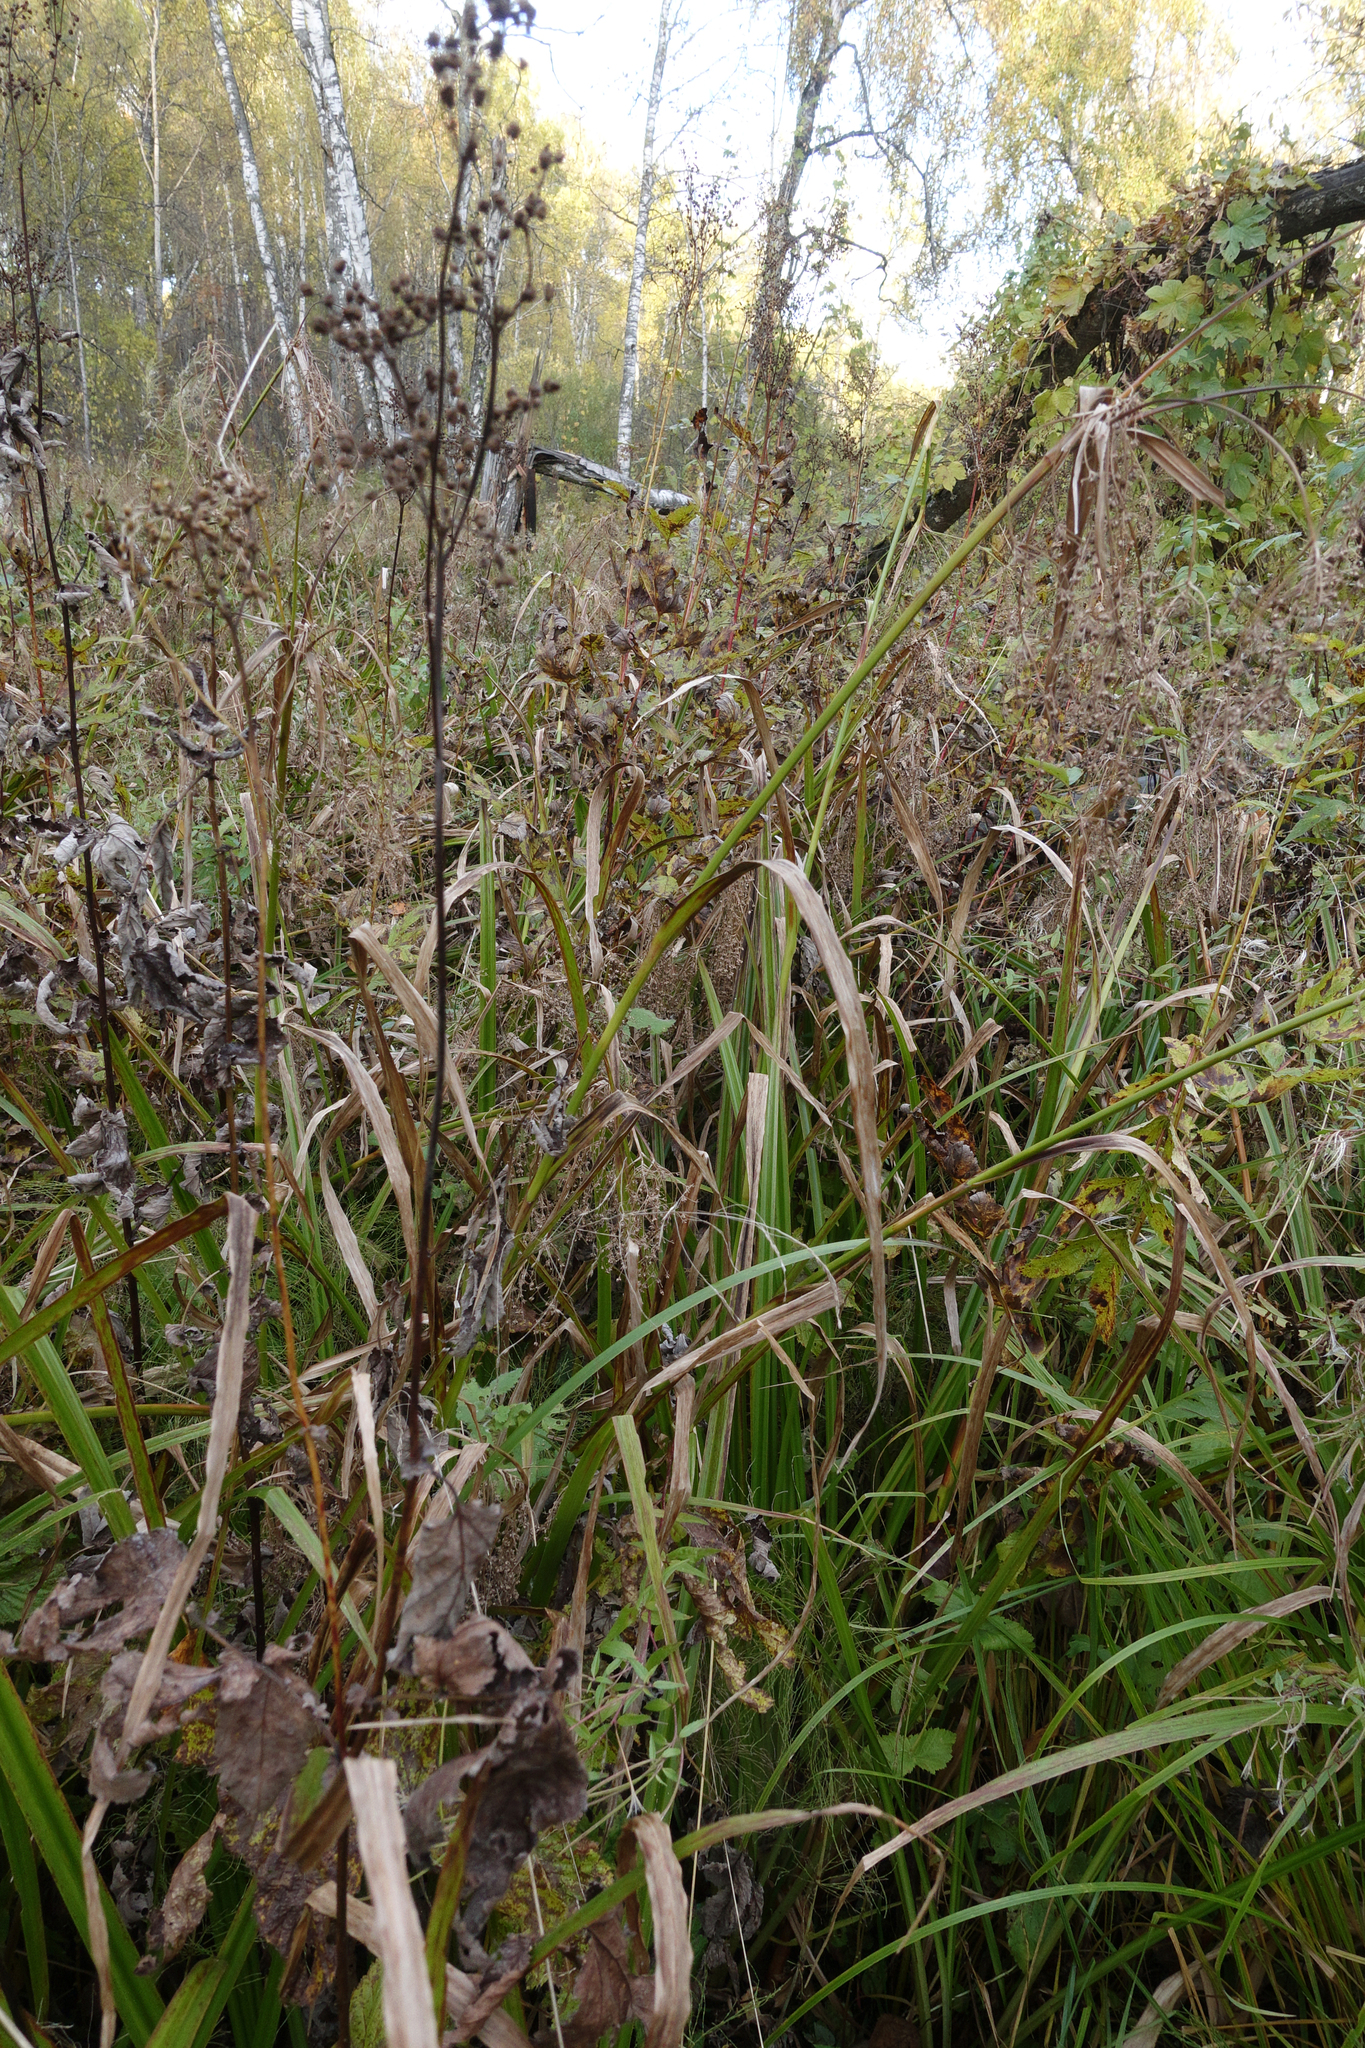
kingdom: Plantae
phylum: Tracheophyta
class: Liliopsida
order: Poales
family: Cyperaceae
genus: Scirpus
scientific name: Scirpus sylvaticus
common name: Wood club-rush
